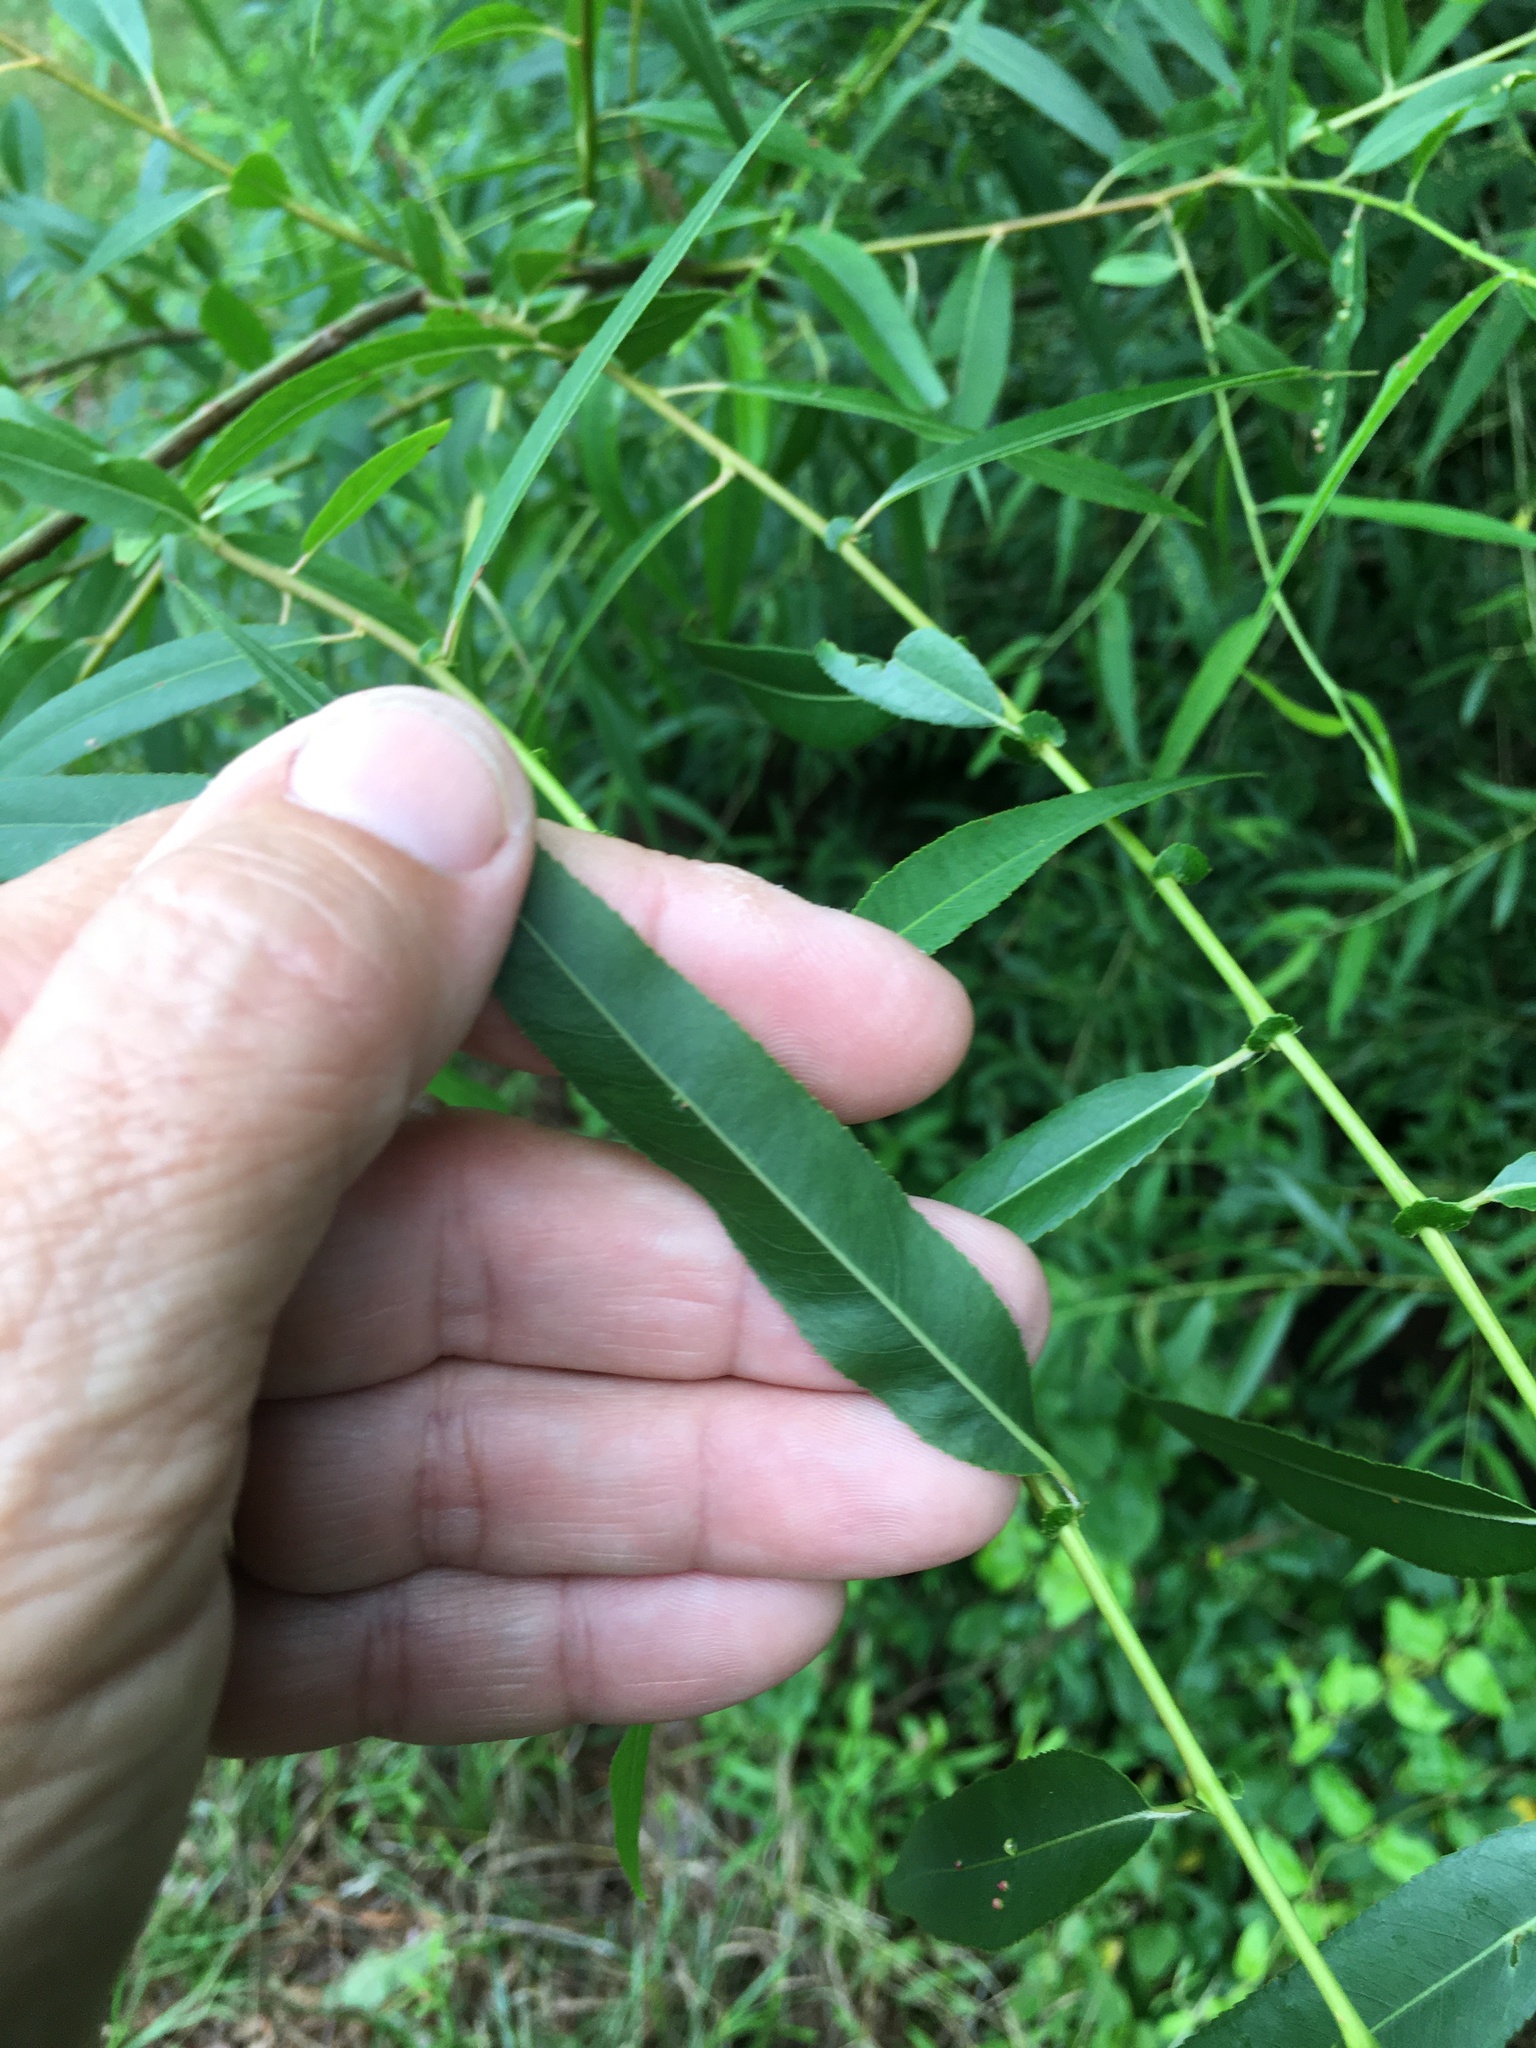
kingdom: Plantae
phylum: Tracheophyta
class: Magnoliopsida
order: Malpighiales
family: Salicaceae
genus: Salix
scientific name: Salix nigra
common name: Black willow
